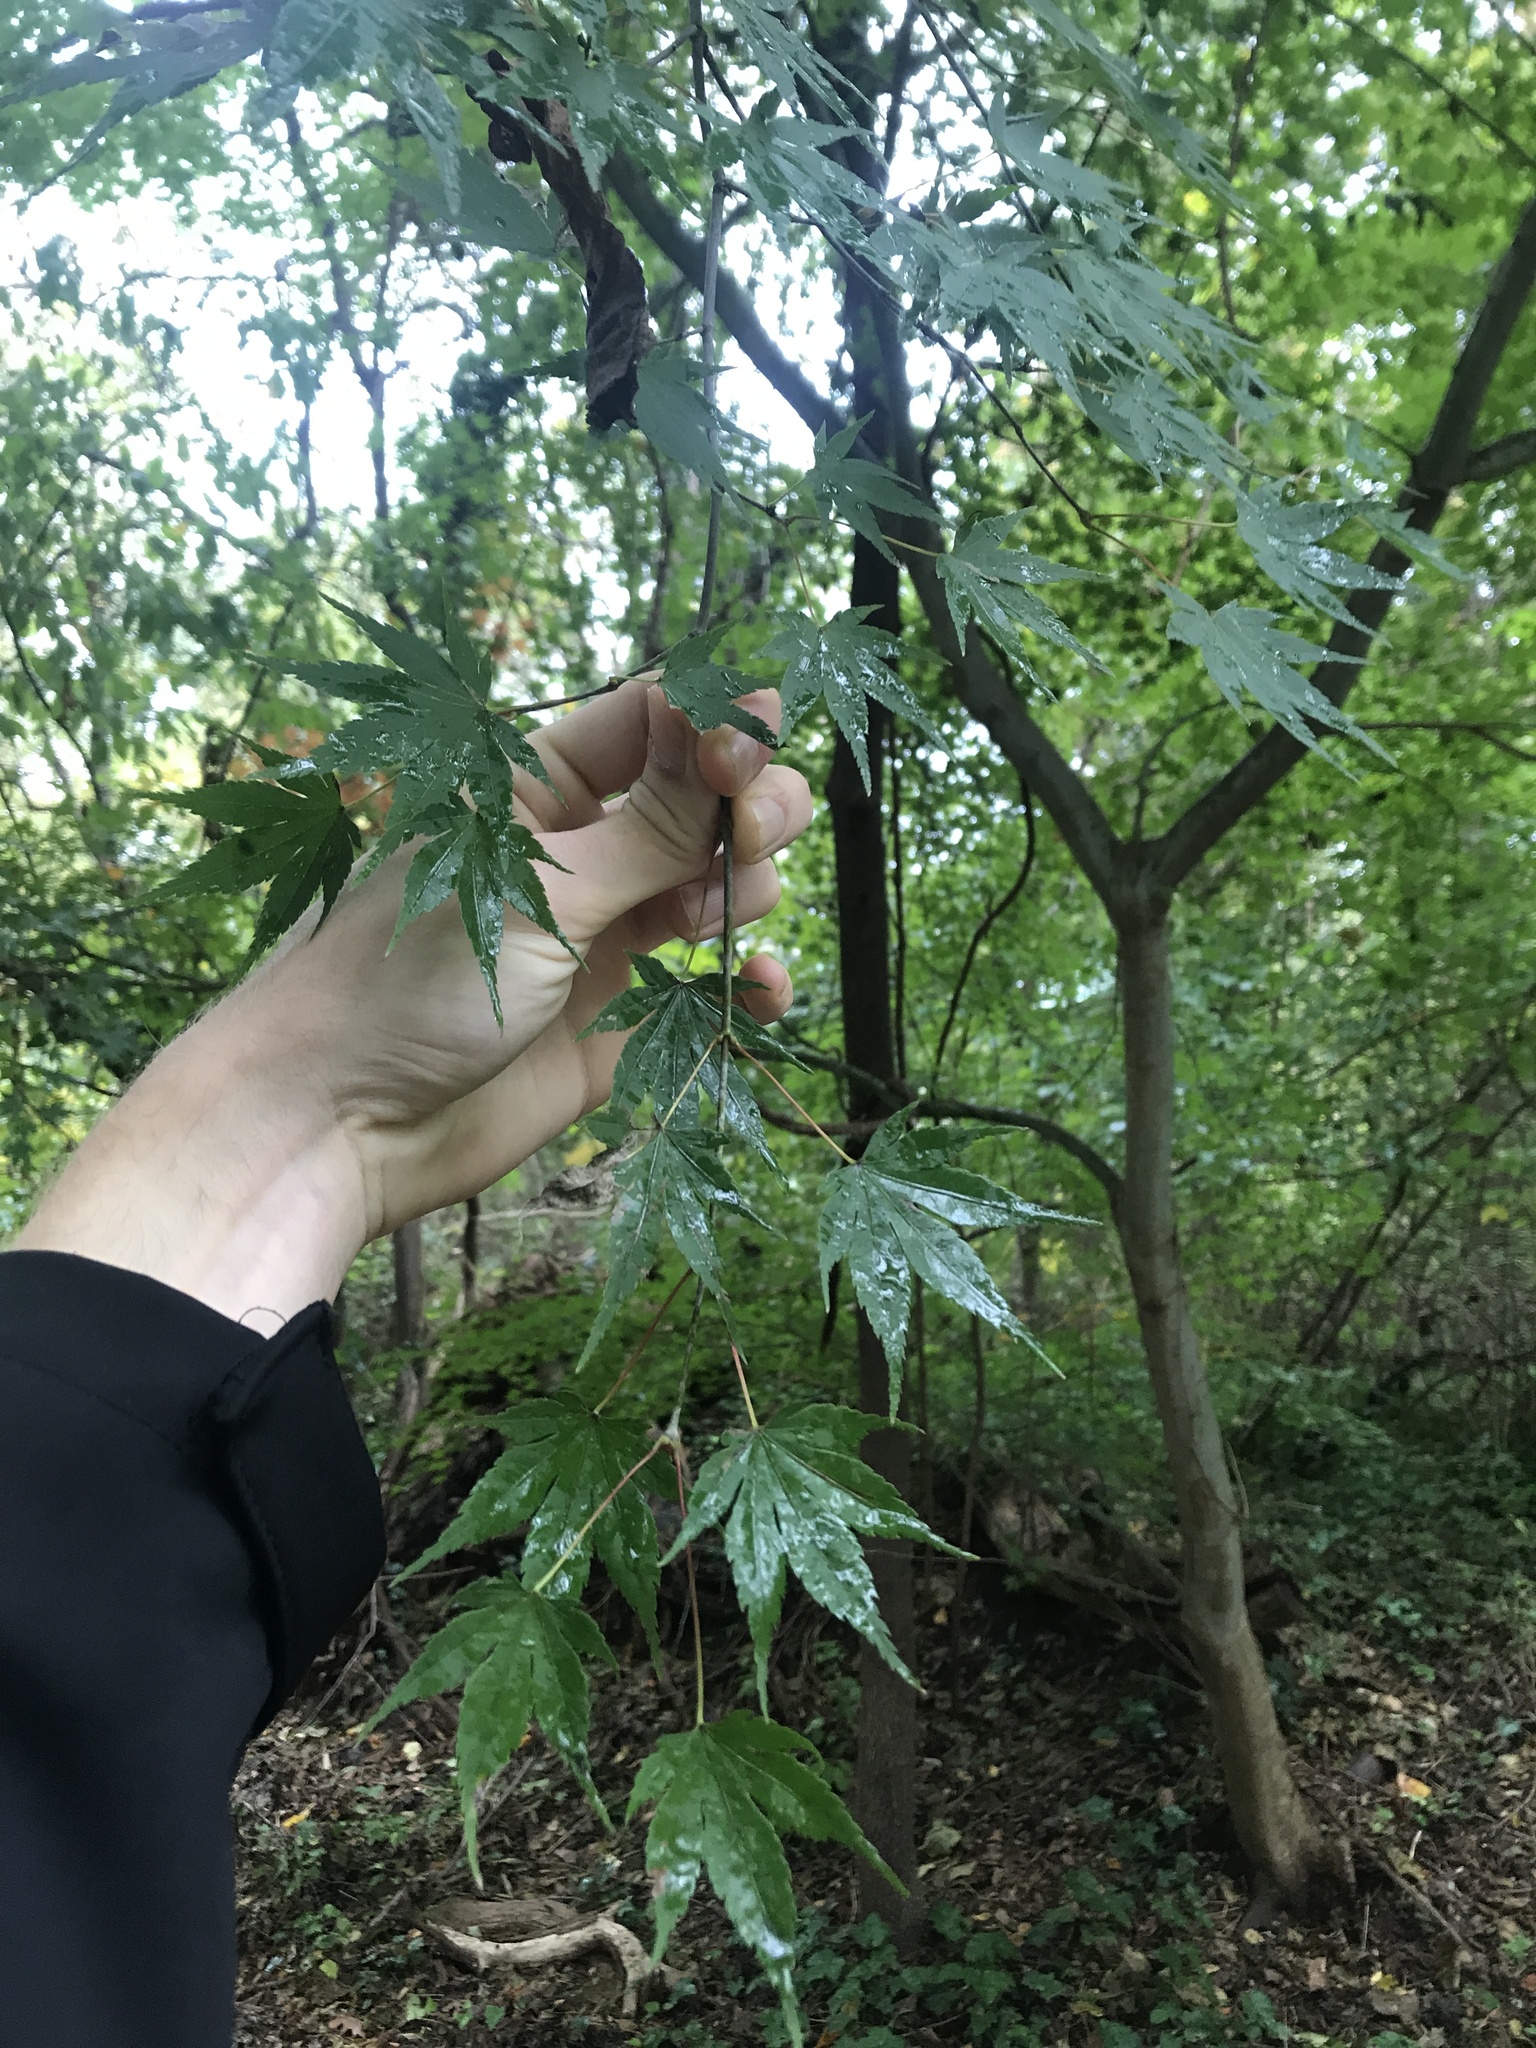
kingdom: Plantae
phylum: Tracheophyta
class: Magnoliopsida
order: Sapindales
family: Sapindaceae
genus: Acer
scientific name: Acer palmatum
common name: Japanese maple
